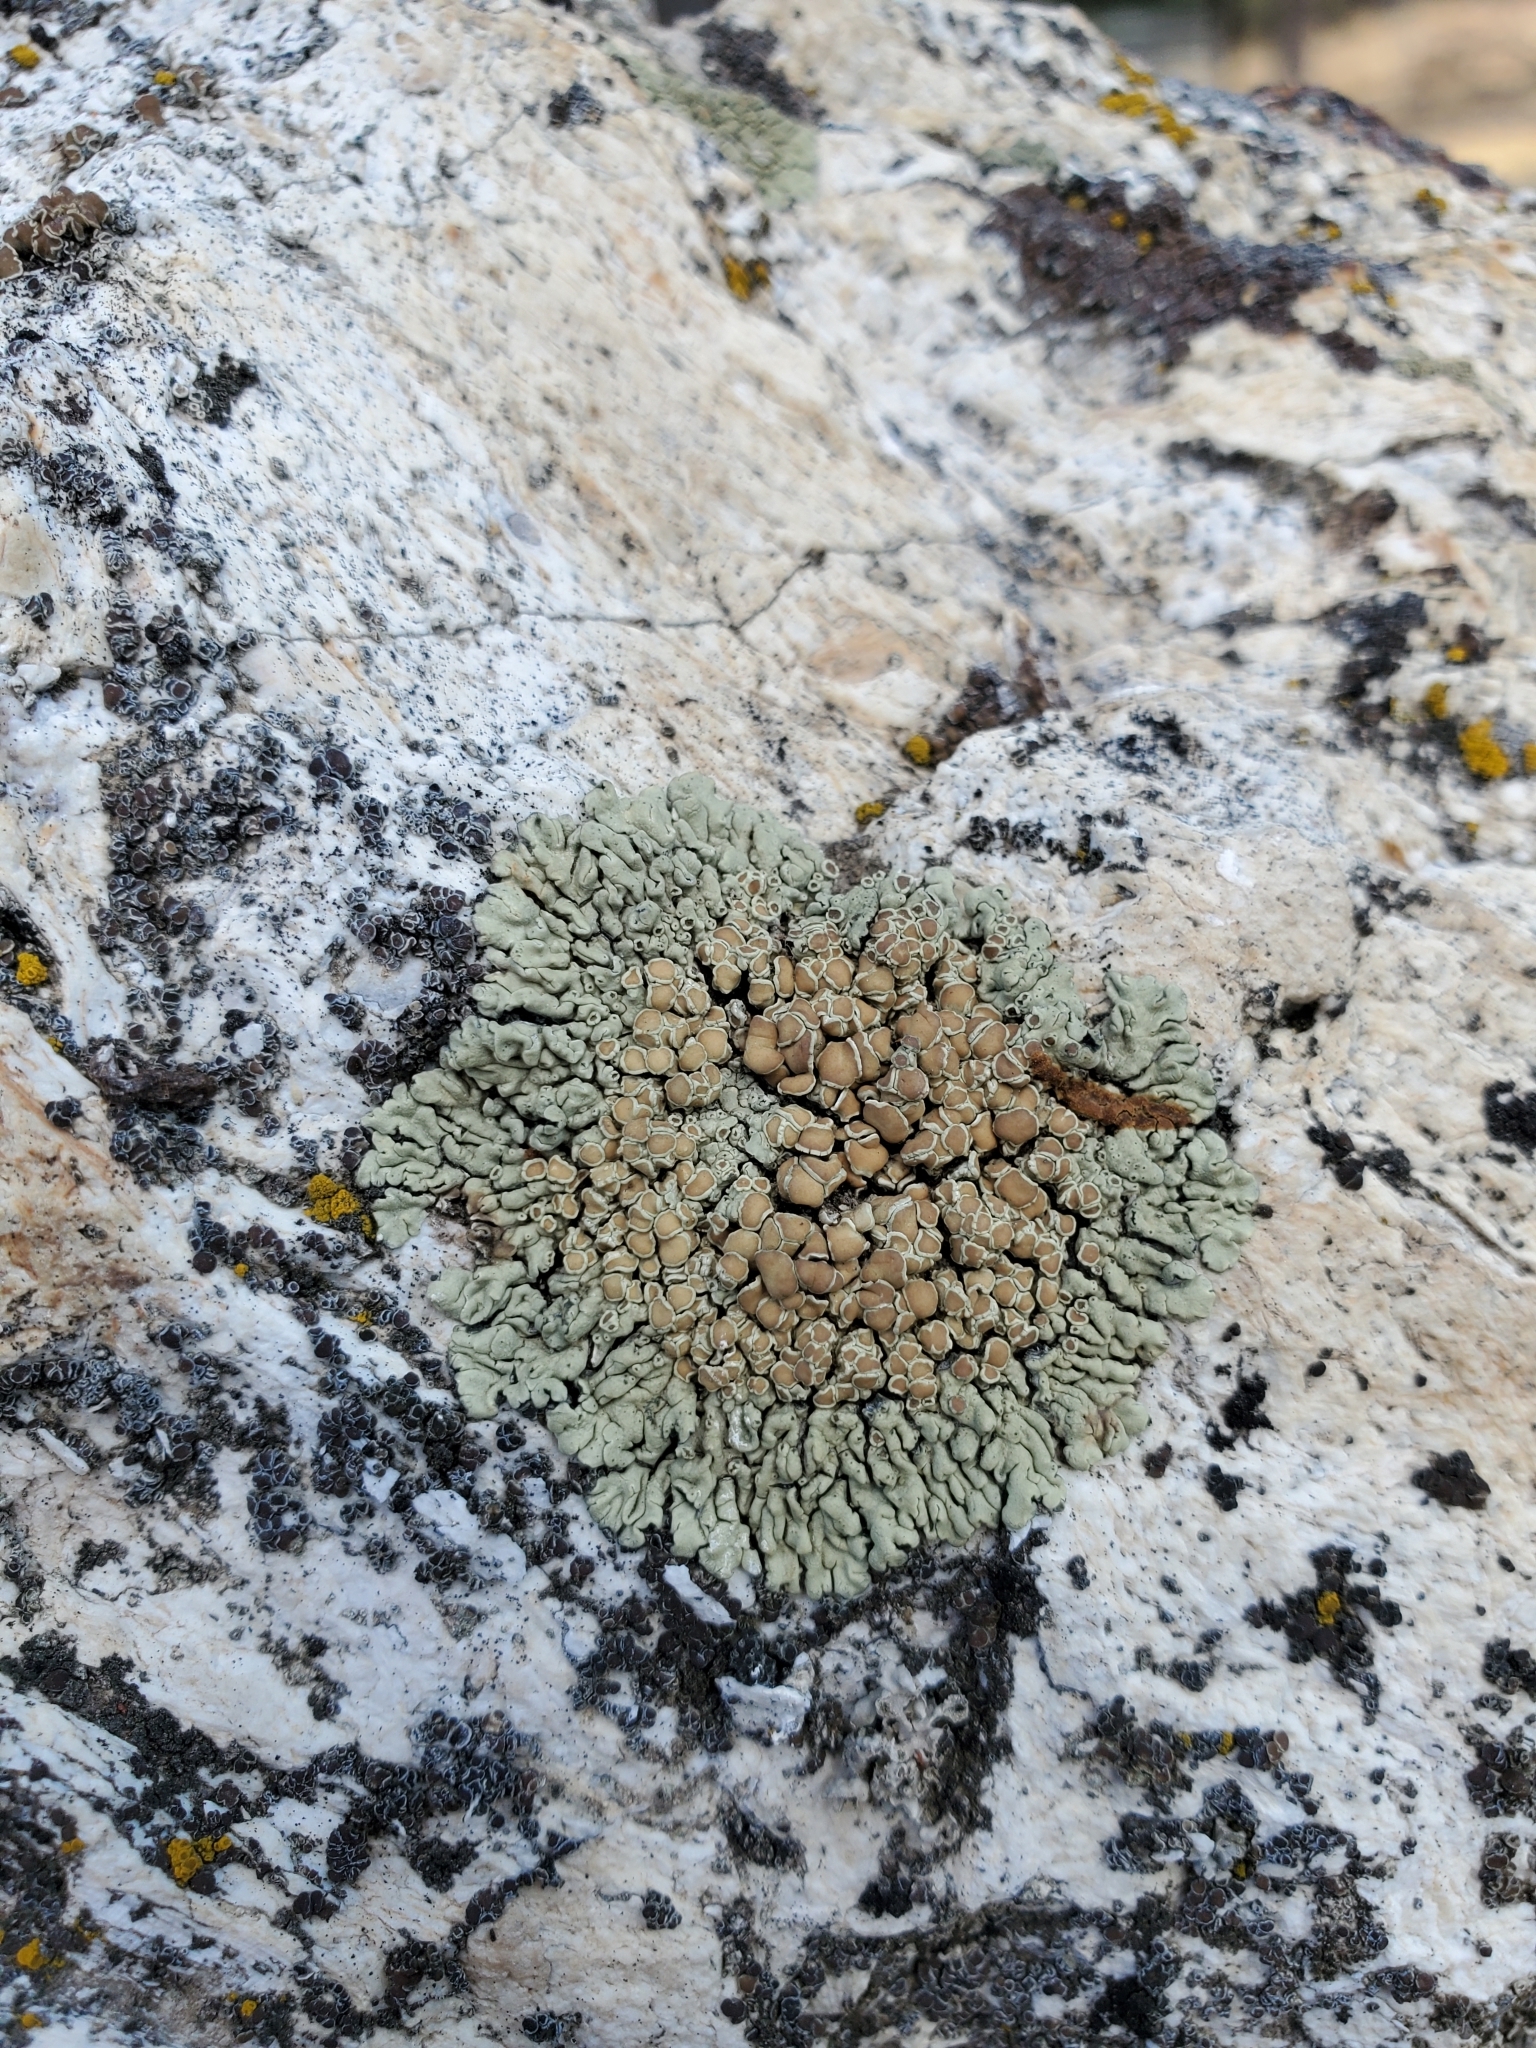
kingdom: Fungi
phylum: Ascomycota
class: Lecanoromycetes
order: Lecanorales
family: Lecanoraceae
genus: Protoparmeliopsis
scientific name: Protoparmeliopsis muralis
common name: Stonewall rim lichen
